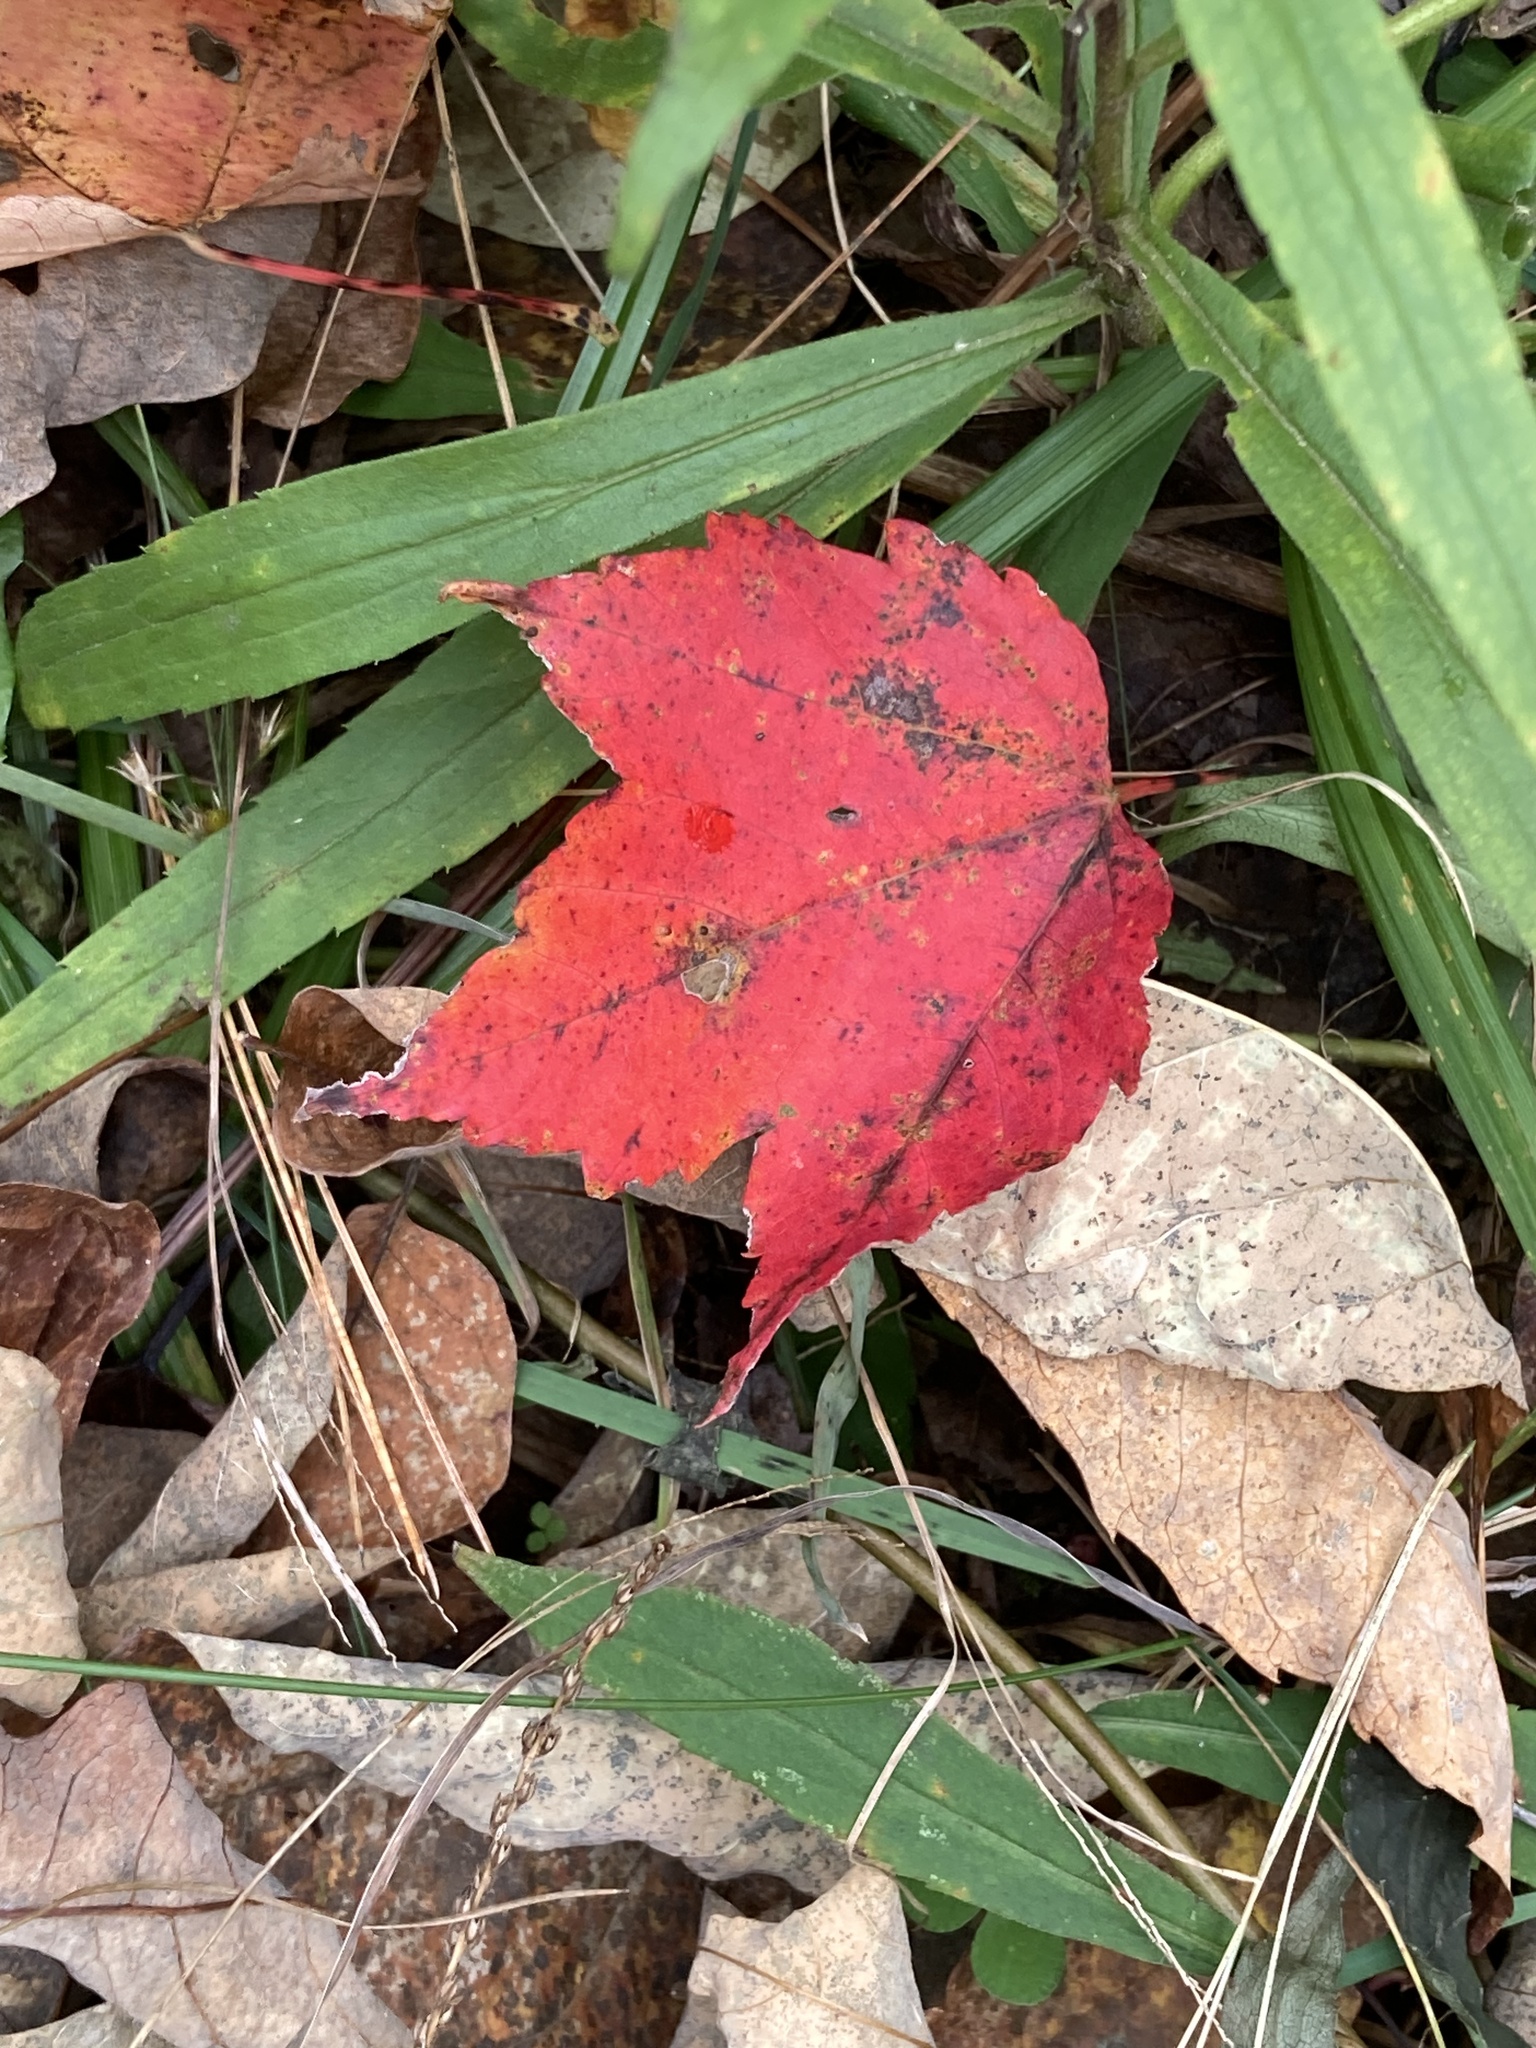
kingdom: Plantae
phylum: Tracheophyta
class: Magnoliopsida
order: Sapindales
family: Sapindaceae
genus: Acer
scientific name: Acer rubrum
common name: Red maple
